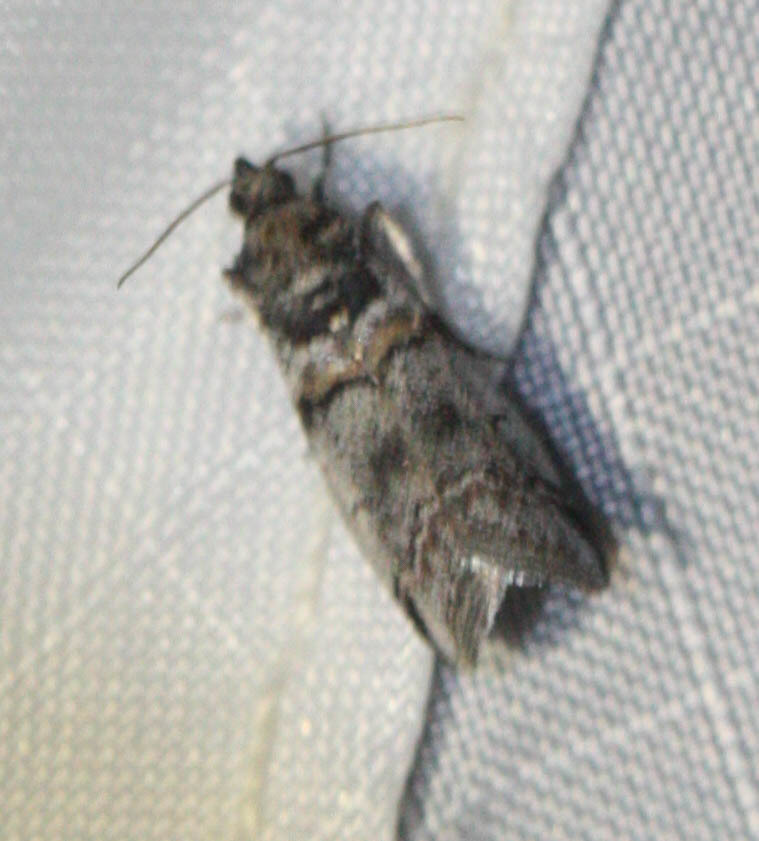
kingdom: Animalia
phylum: Arthropoda
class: Insecta
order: Lepidoptera
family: Pyralidae
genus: Acrobasis
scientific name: Acrobasis tricolorella
